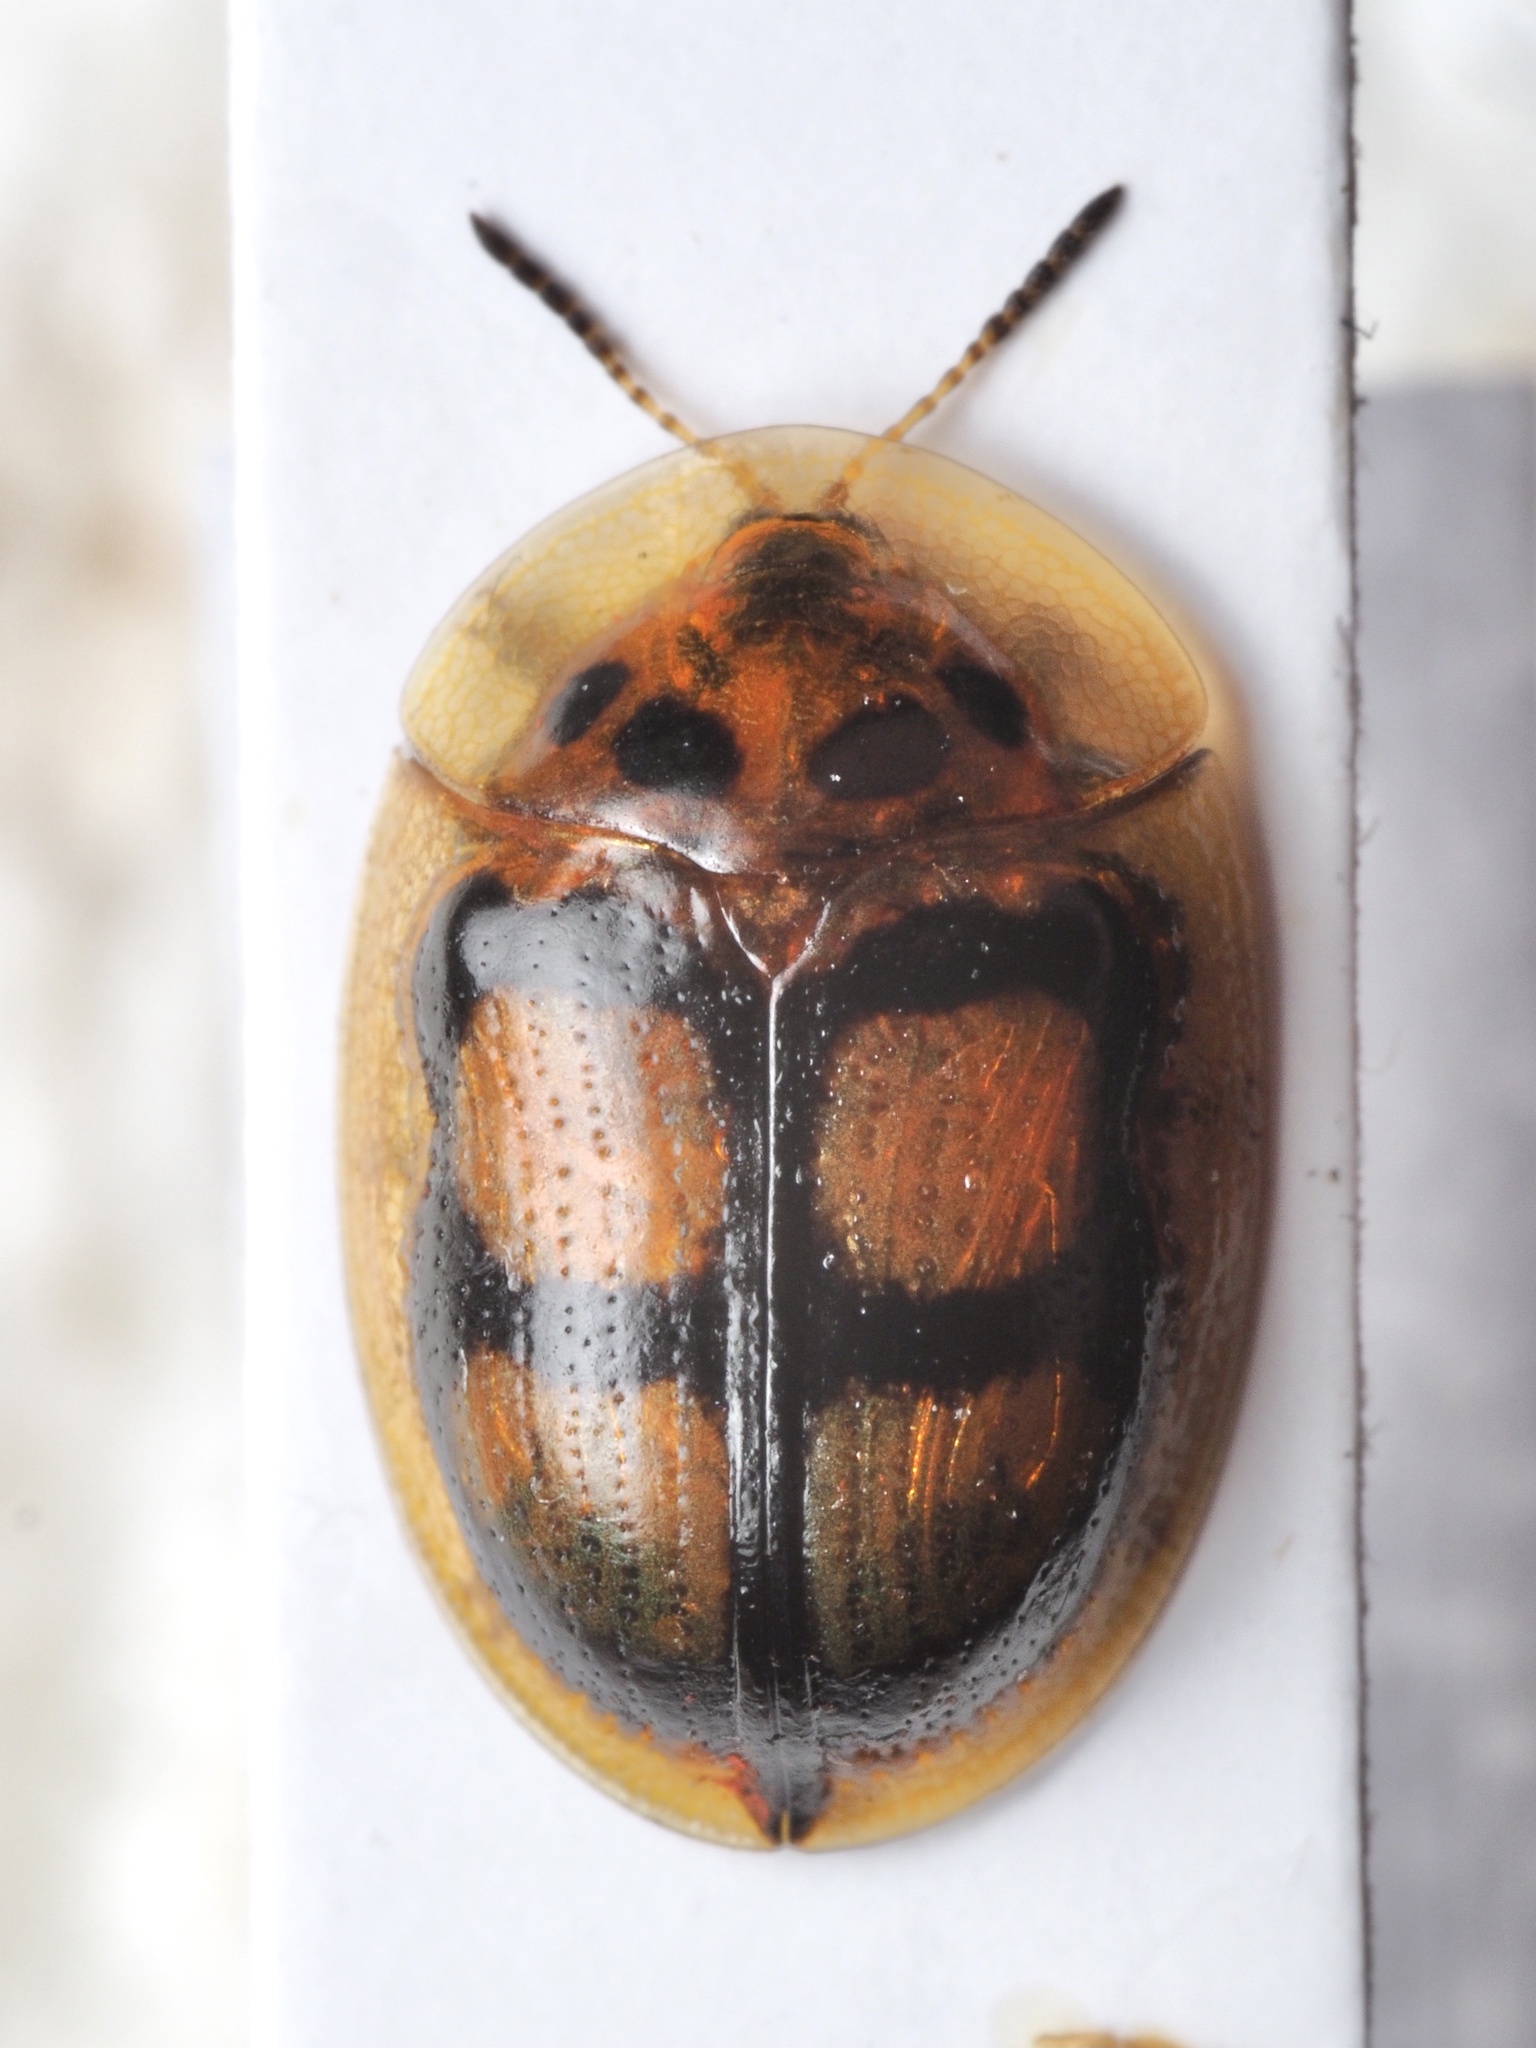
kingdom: Animalia
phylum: Arthropoda
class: Insecta
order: Coleoptera
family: Chrysomelidae
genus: Aspidimorpha
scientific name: Aspidimorpha areata
